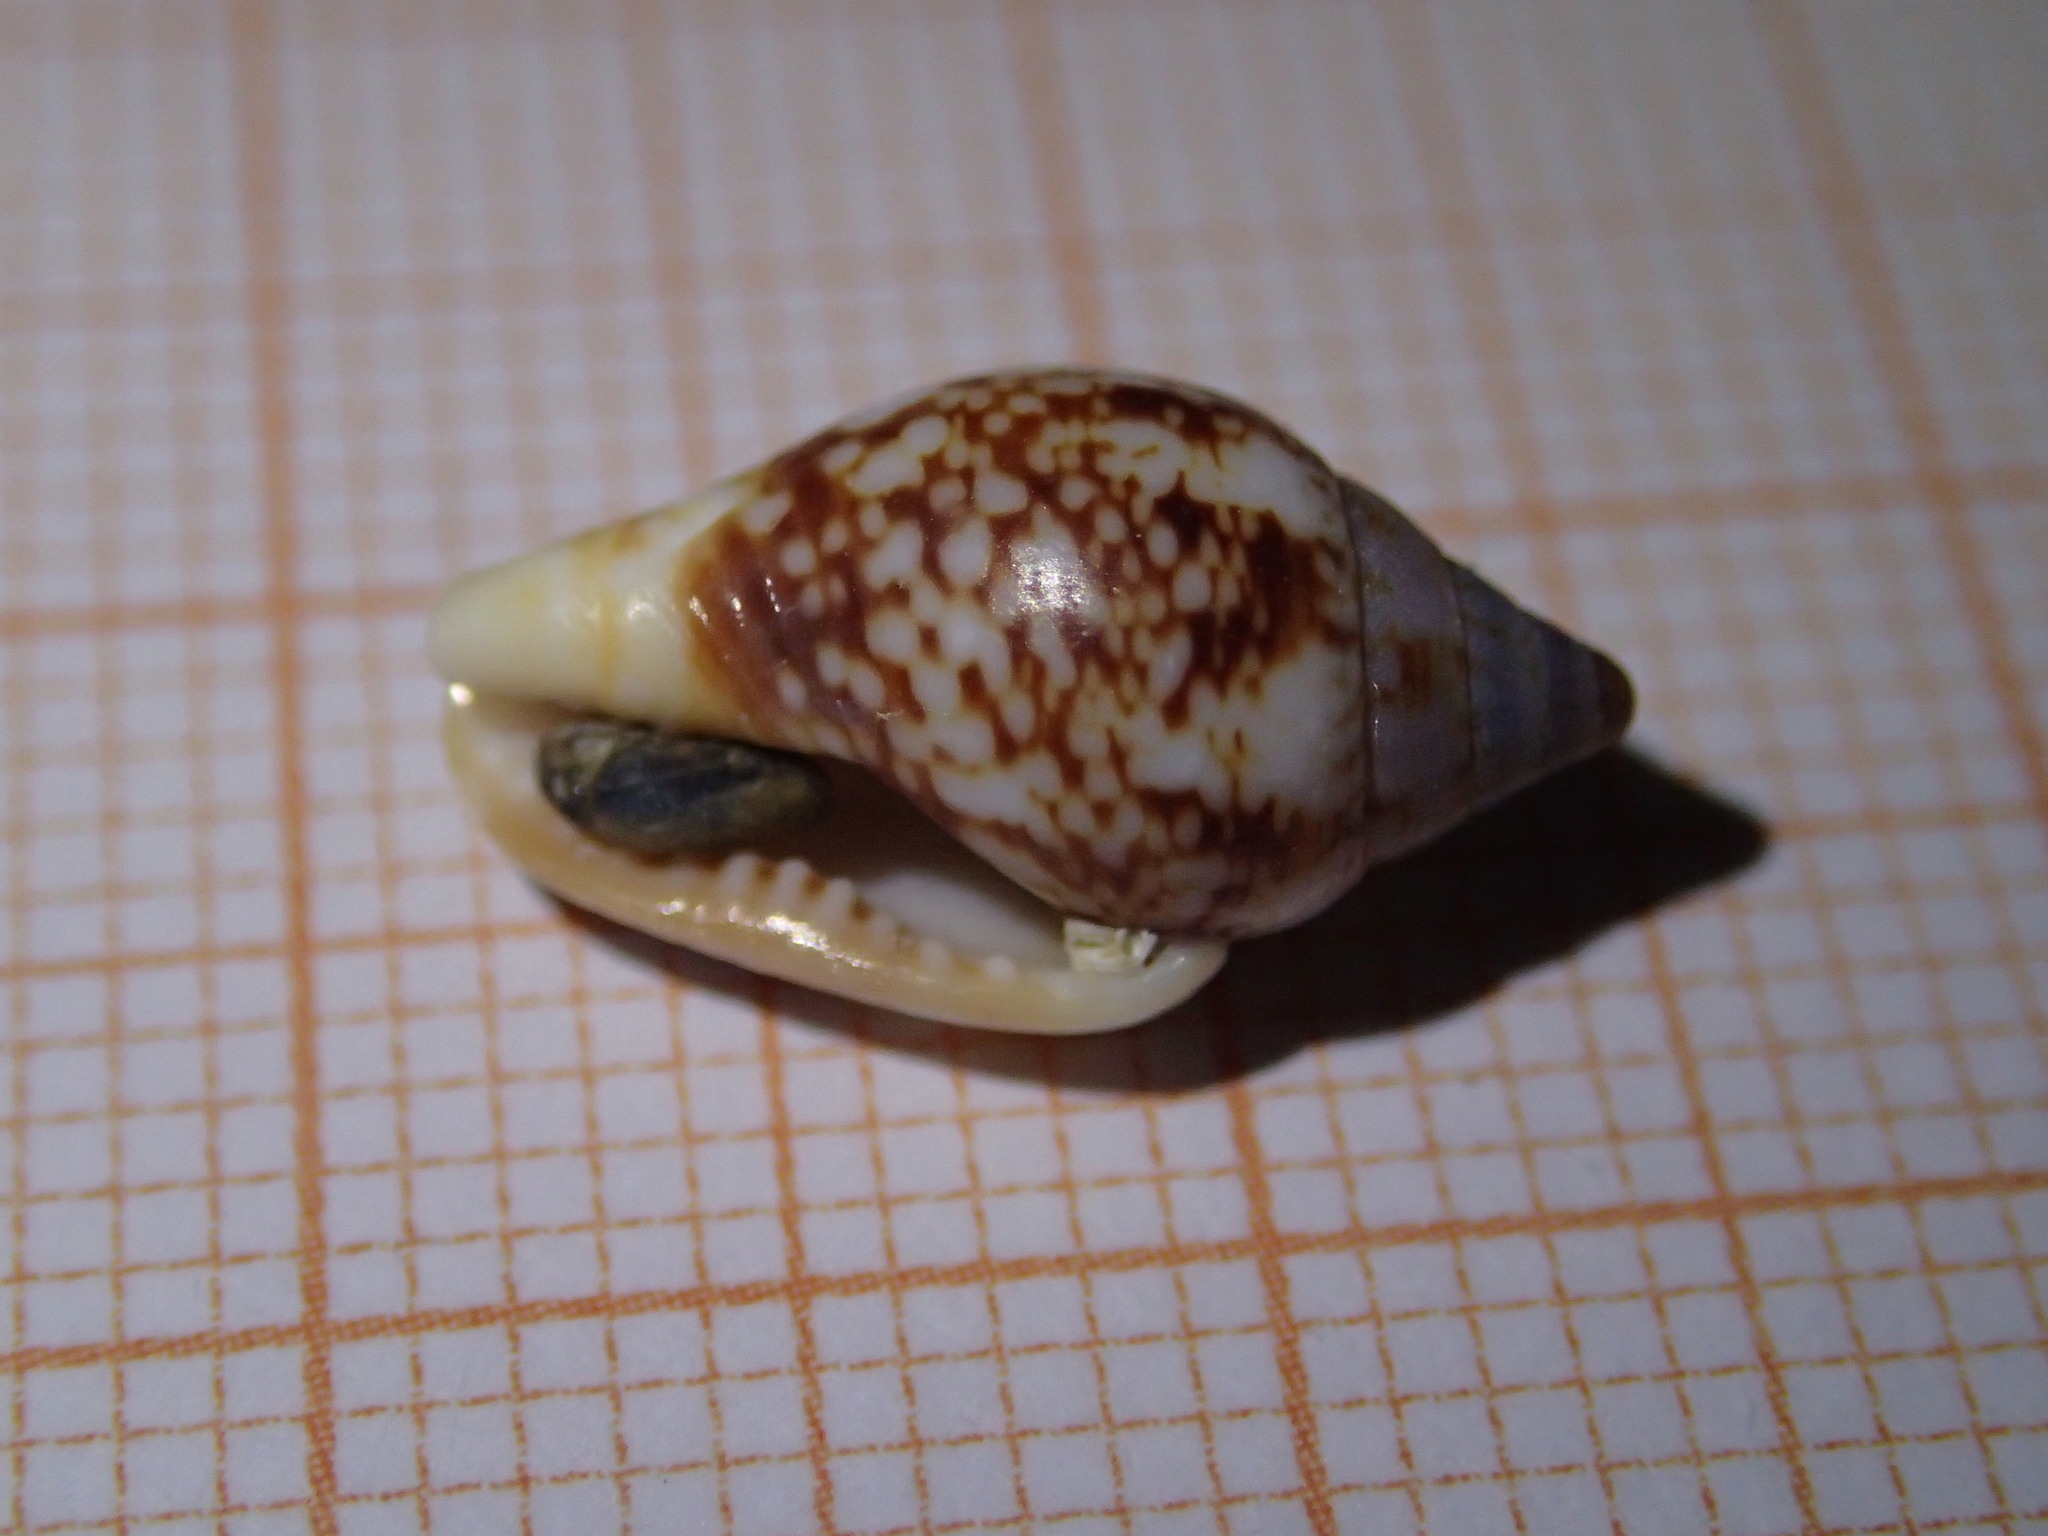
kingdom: Animalia
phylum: Mollusca
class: Gastropoda
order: Neogastropoda
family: Columbellidae
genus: Columbella
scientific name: Columbella rustica
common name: Rustic dove shell
